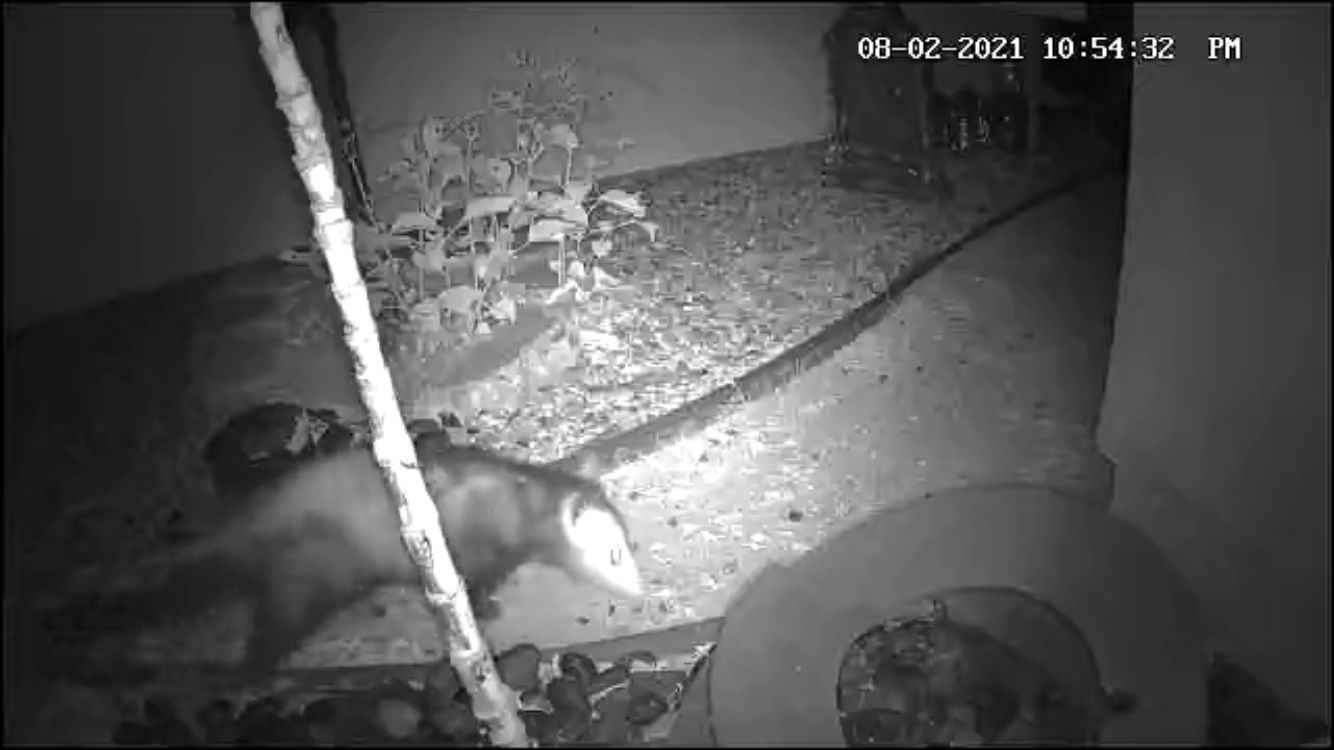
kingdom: Animalia
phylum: Chordata
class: Mammalia
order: Didelphimorphia
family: Didelphidae
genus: Didelphis
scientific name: Didelphis virginiana
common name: Virginia opossum
